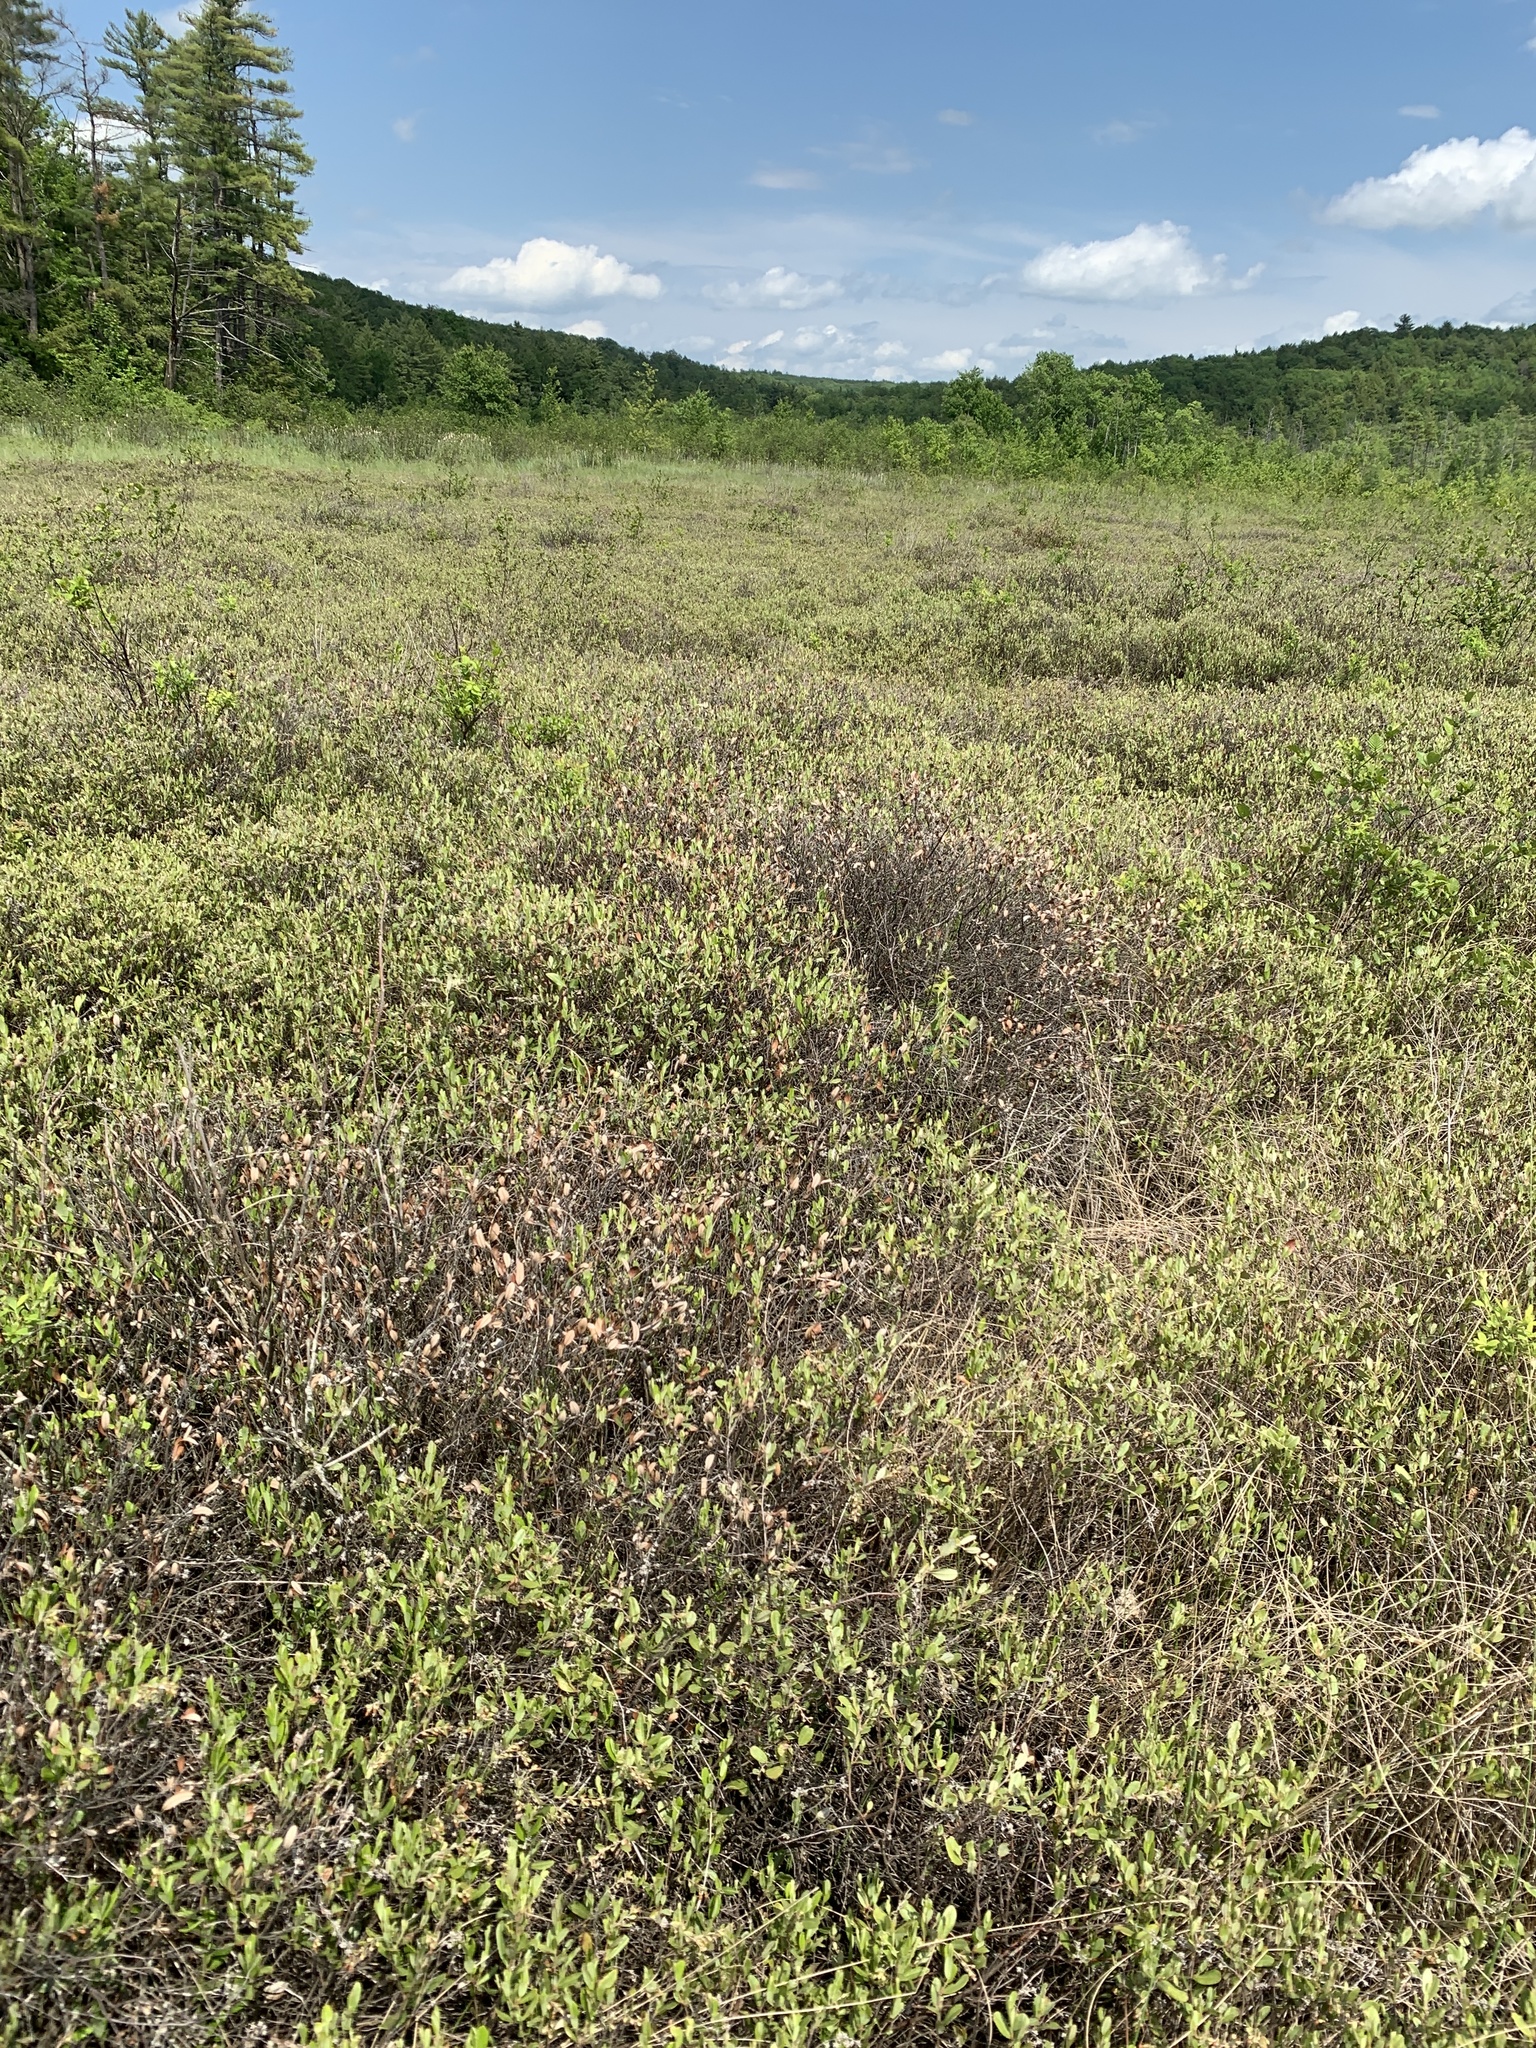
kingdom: Plantae
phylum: Tracheophyta
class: Magnoliopsida
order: Ericales
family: Ericaceae
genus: Chamaedaphne
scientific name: Chamaedaphne calyculata
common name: Leatherleaf
